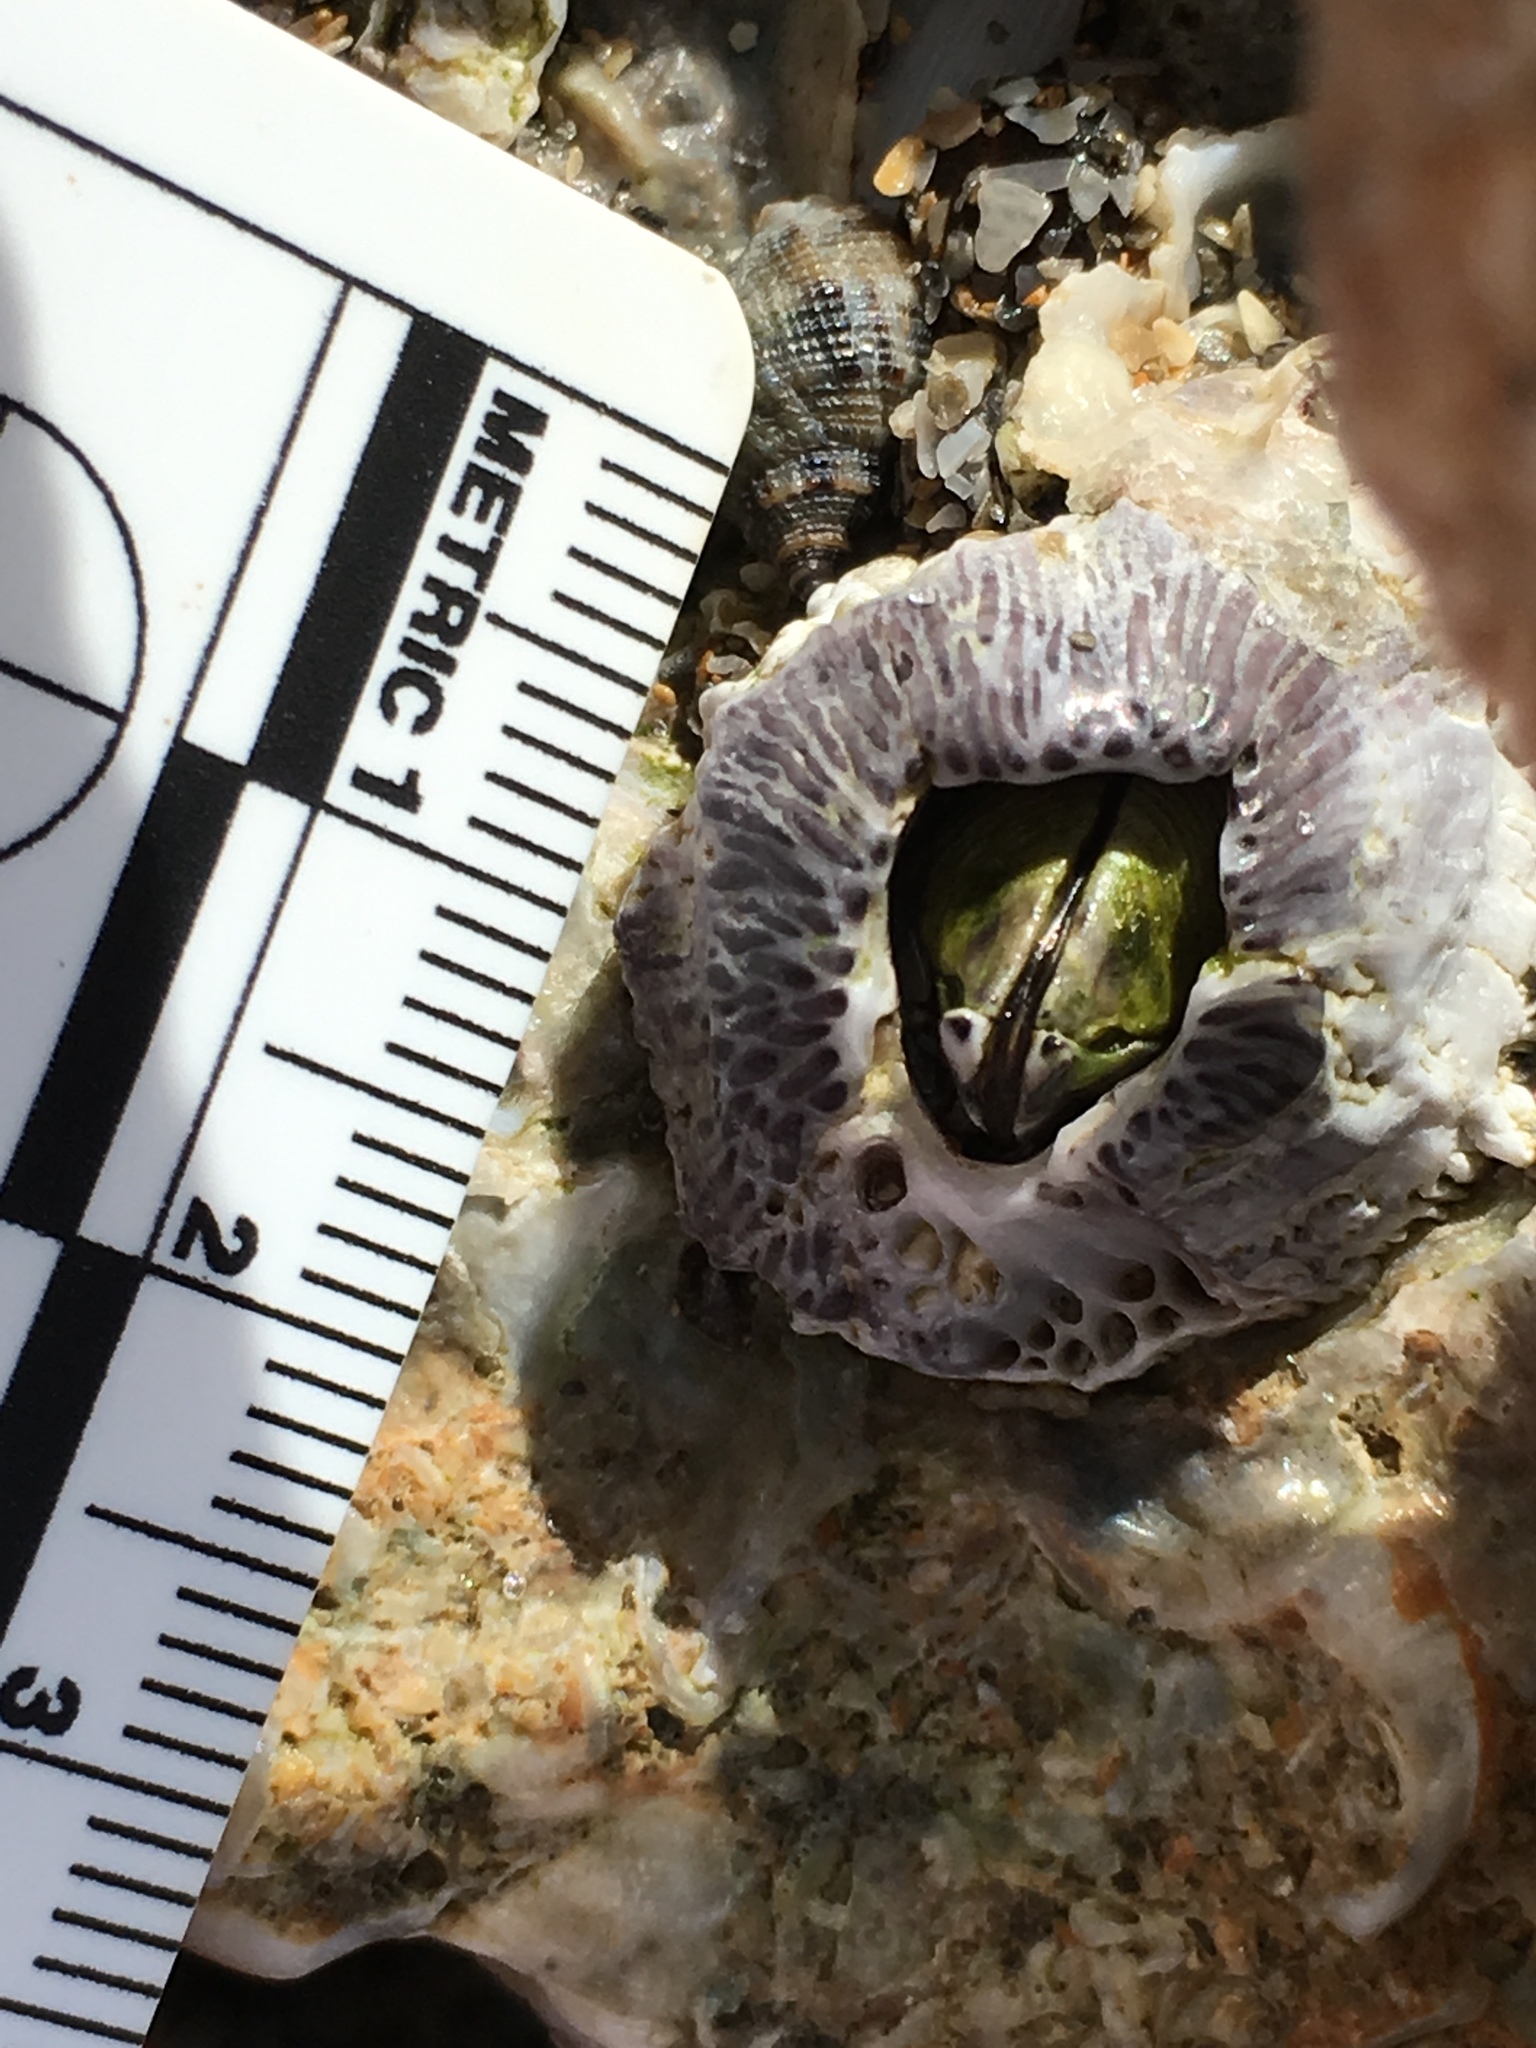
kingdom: Animalia
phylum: Arthropoda
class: Maxillopoda
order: Sessilia
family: Tetraclitidae
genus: Tetraclita
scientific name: Tetraclita stalactifera
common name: Ribbed barnacle
